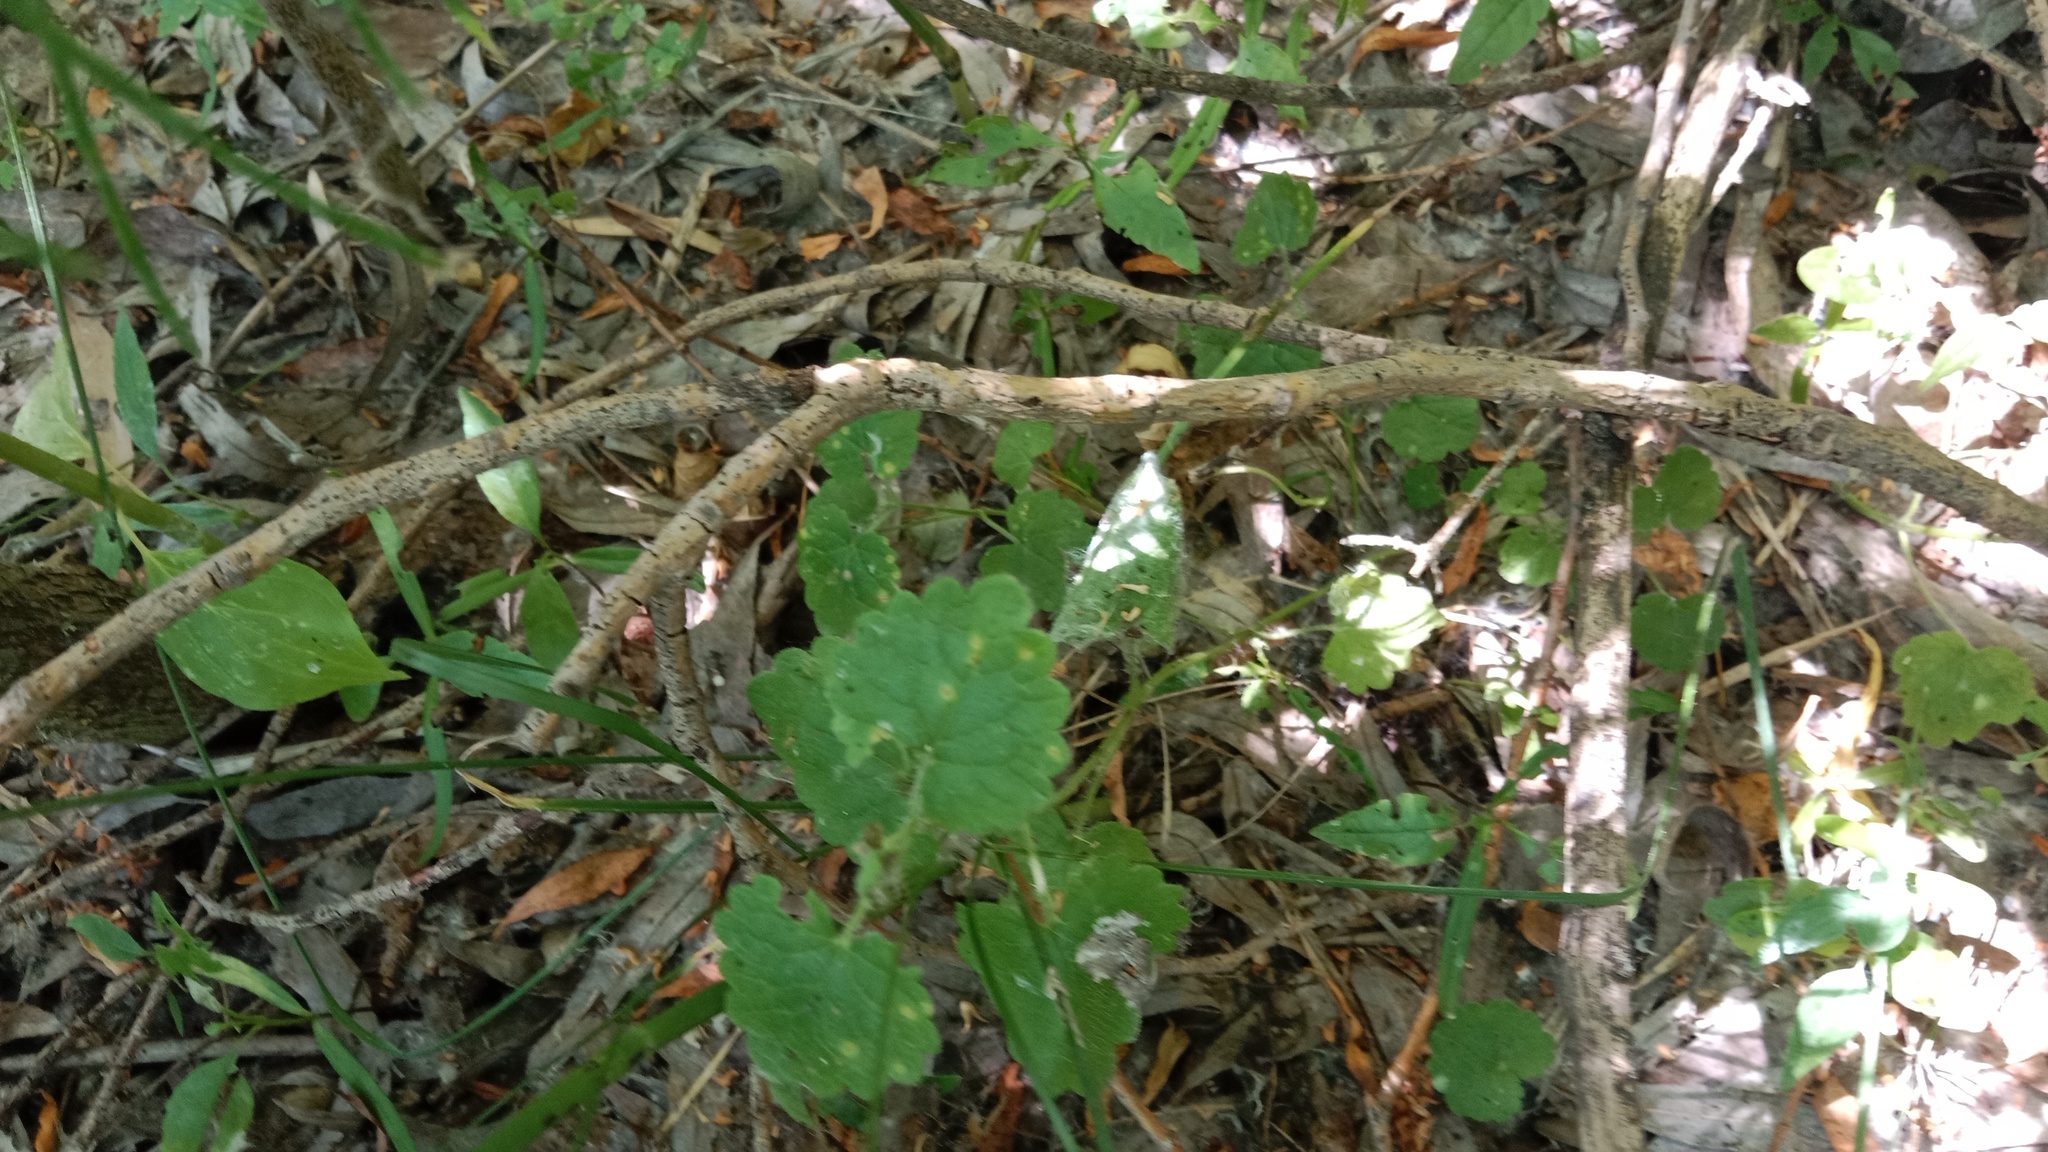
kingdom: Plantae
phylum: Tracheophyta
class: Magnoliopsida
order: Lamiales
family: Lamiaceae
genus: Glechoma
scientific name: Glechoma hederacea
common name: Ground ivy
